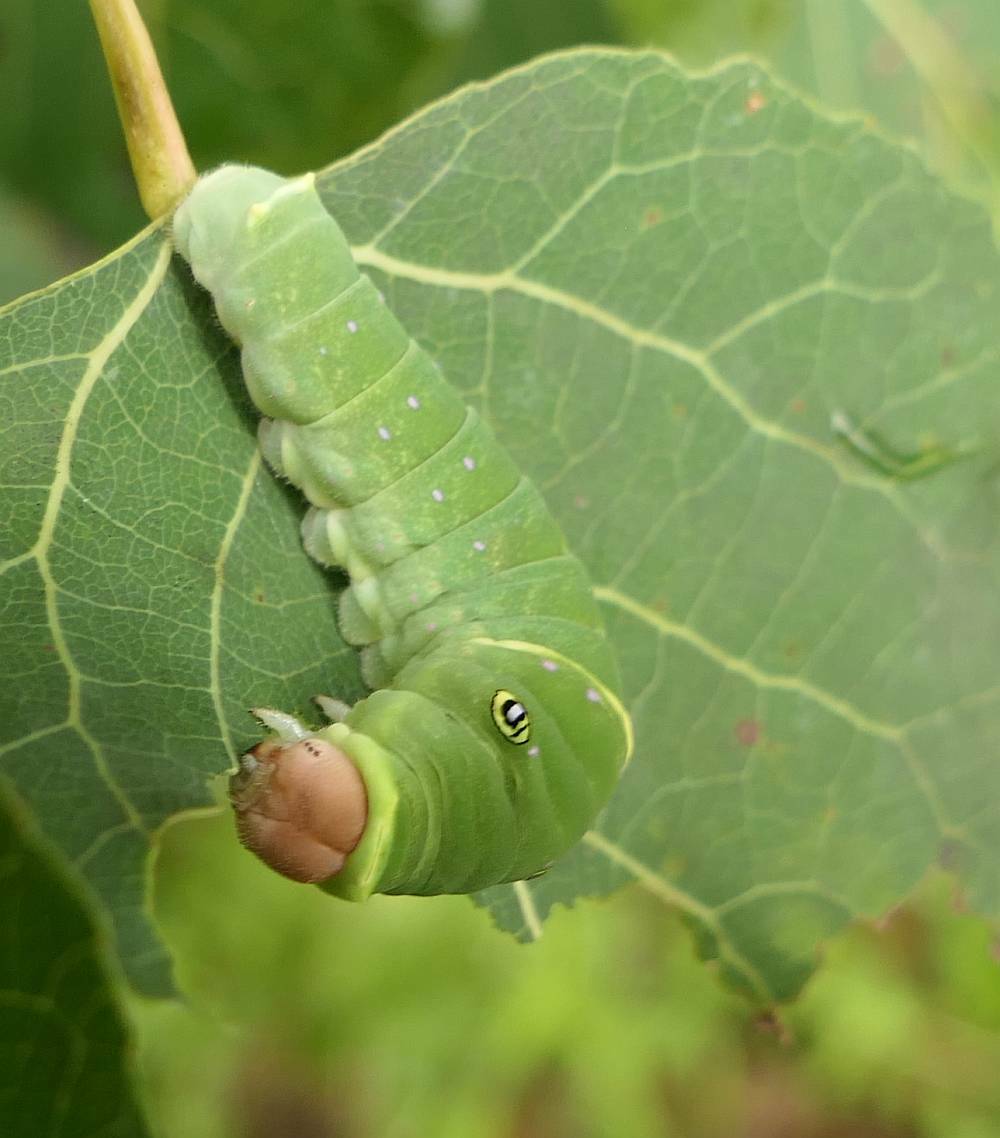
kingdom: Animalia
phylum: Arthropoda
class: Insecta
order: Lepidoptera
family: Papilionidae
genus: Papilio
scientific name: Papilio canadensis
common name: Canadian tiger swallowtail
